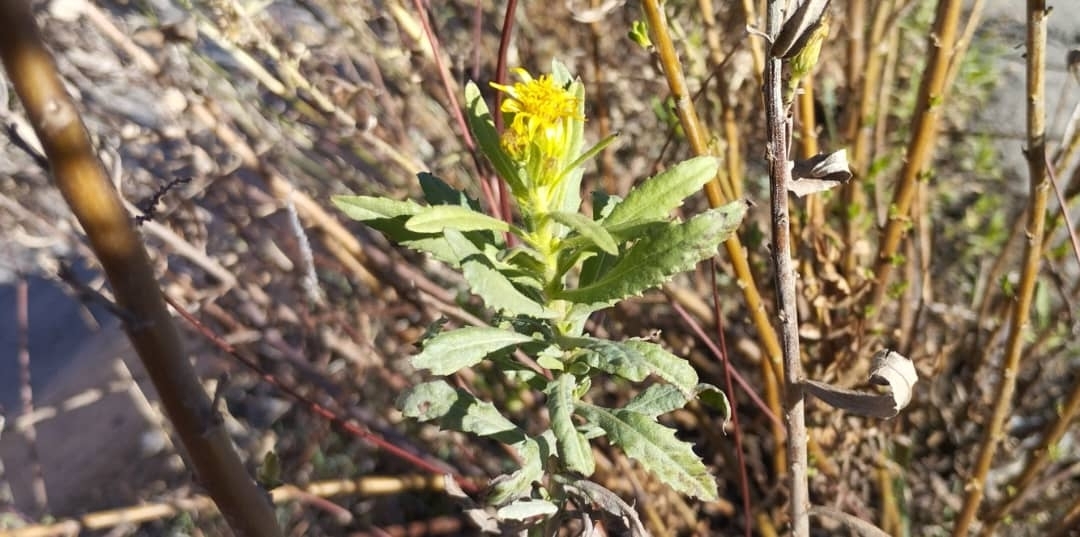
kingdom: Plantae
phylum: Tracheophyta
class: Magnoliopsida
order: Asterales
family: Asteraceae
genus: Dittrichia
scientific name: Dittrichia viscosa
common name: Woody fleabane
